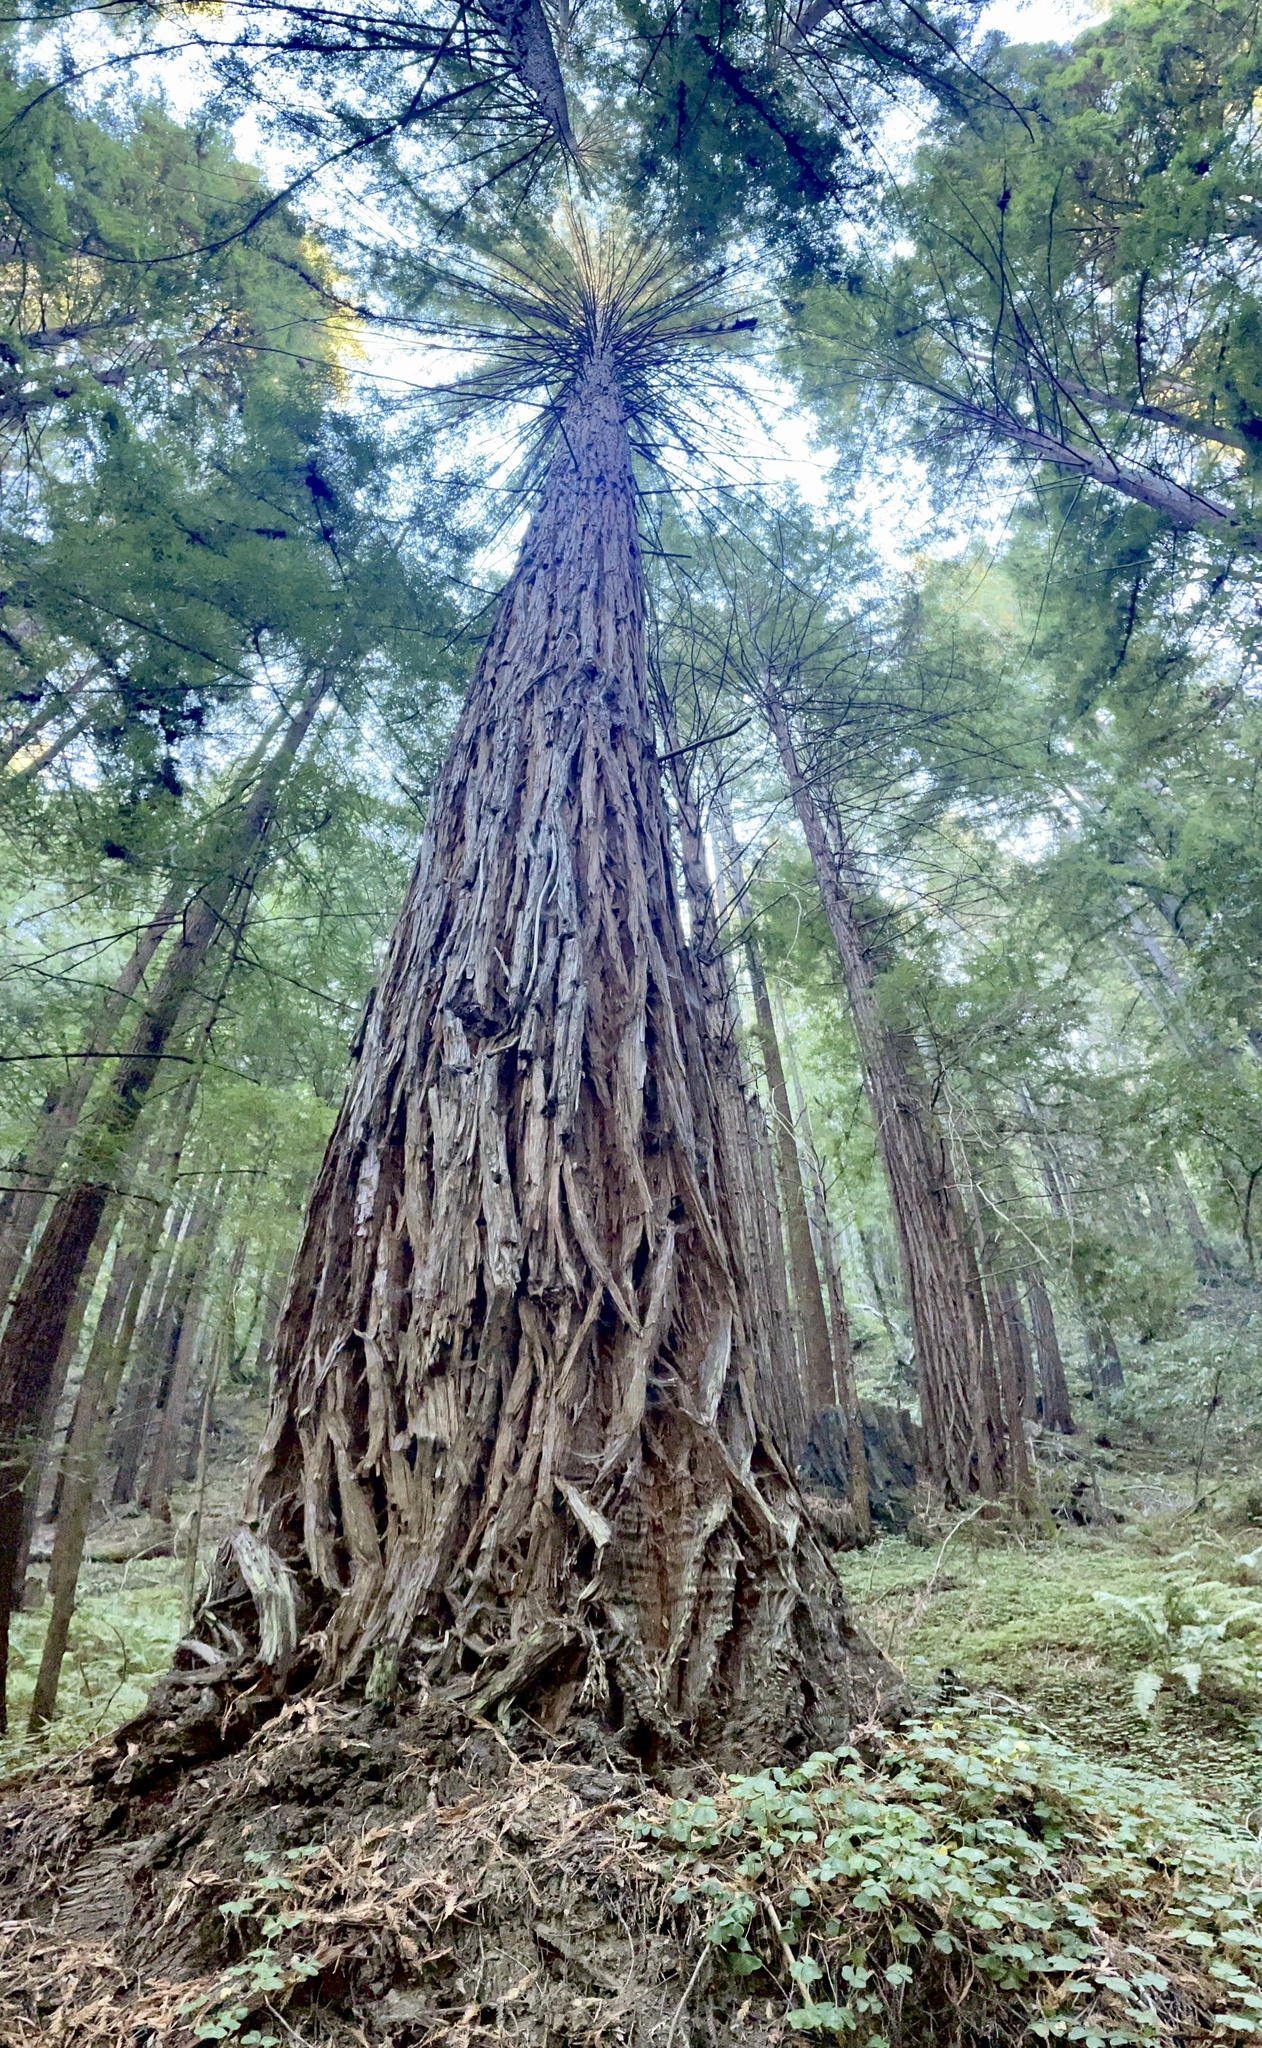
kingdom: Plantae
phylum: Tracheophyta
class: Pinopsida
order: Pinales
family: Cupressaceae
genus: Sequoia
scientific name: Sequoia sempervirens
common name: Coast redwood
